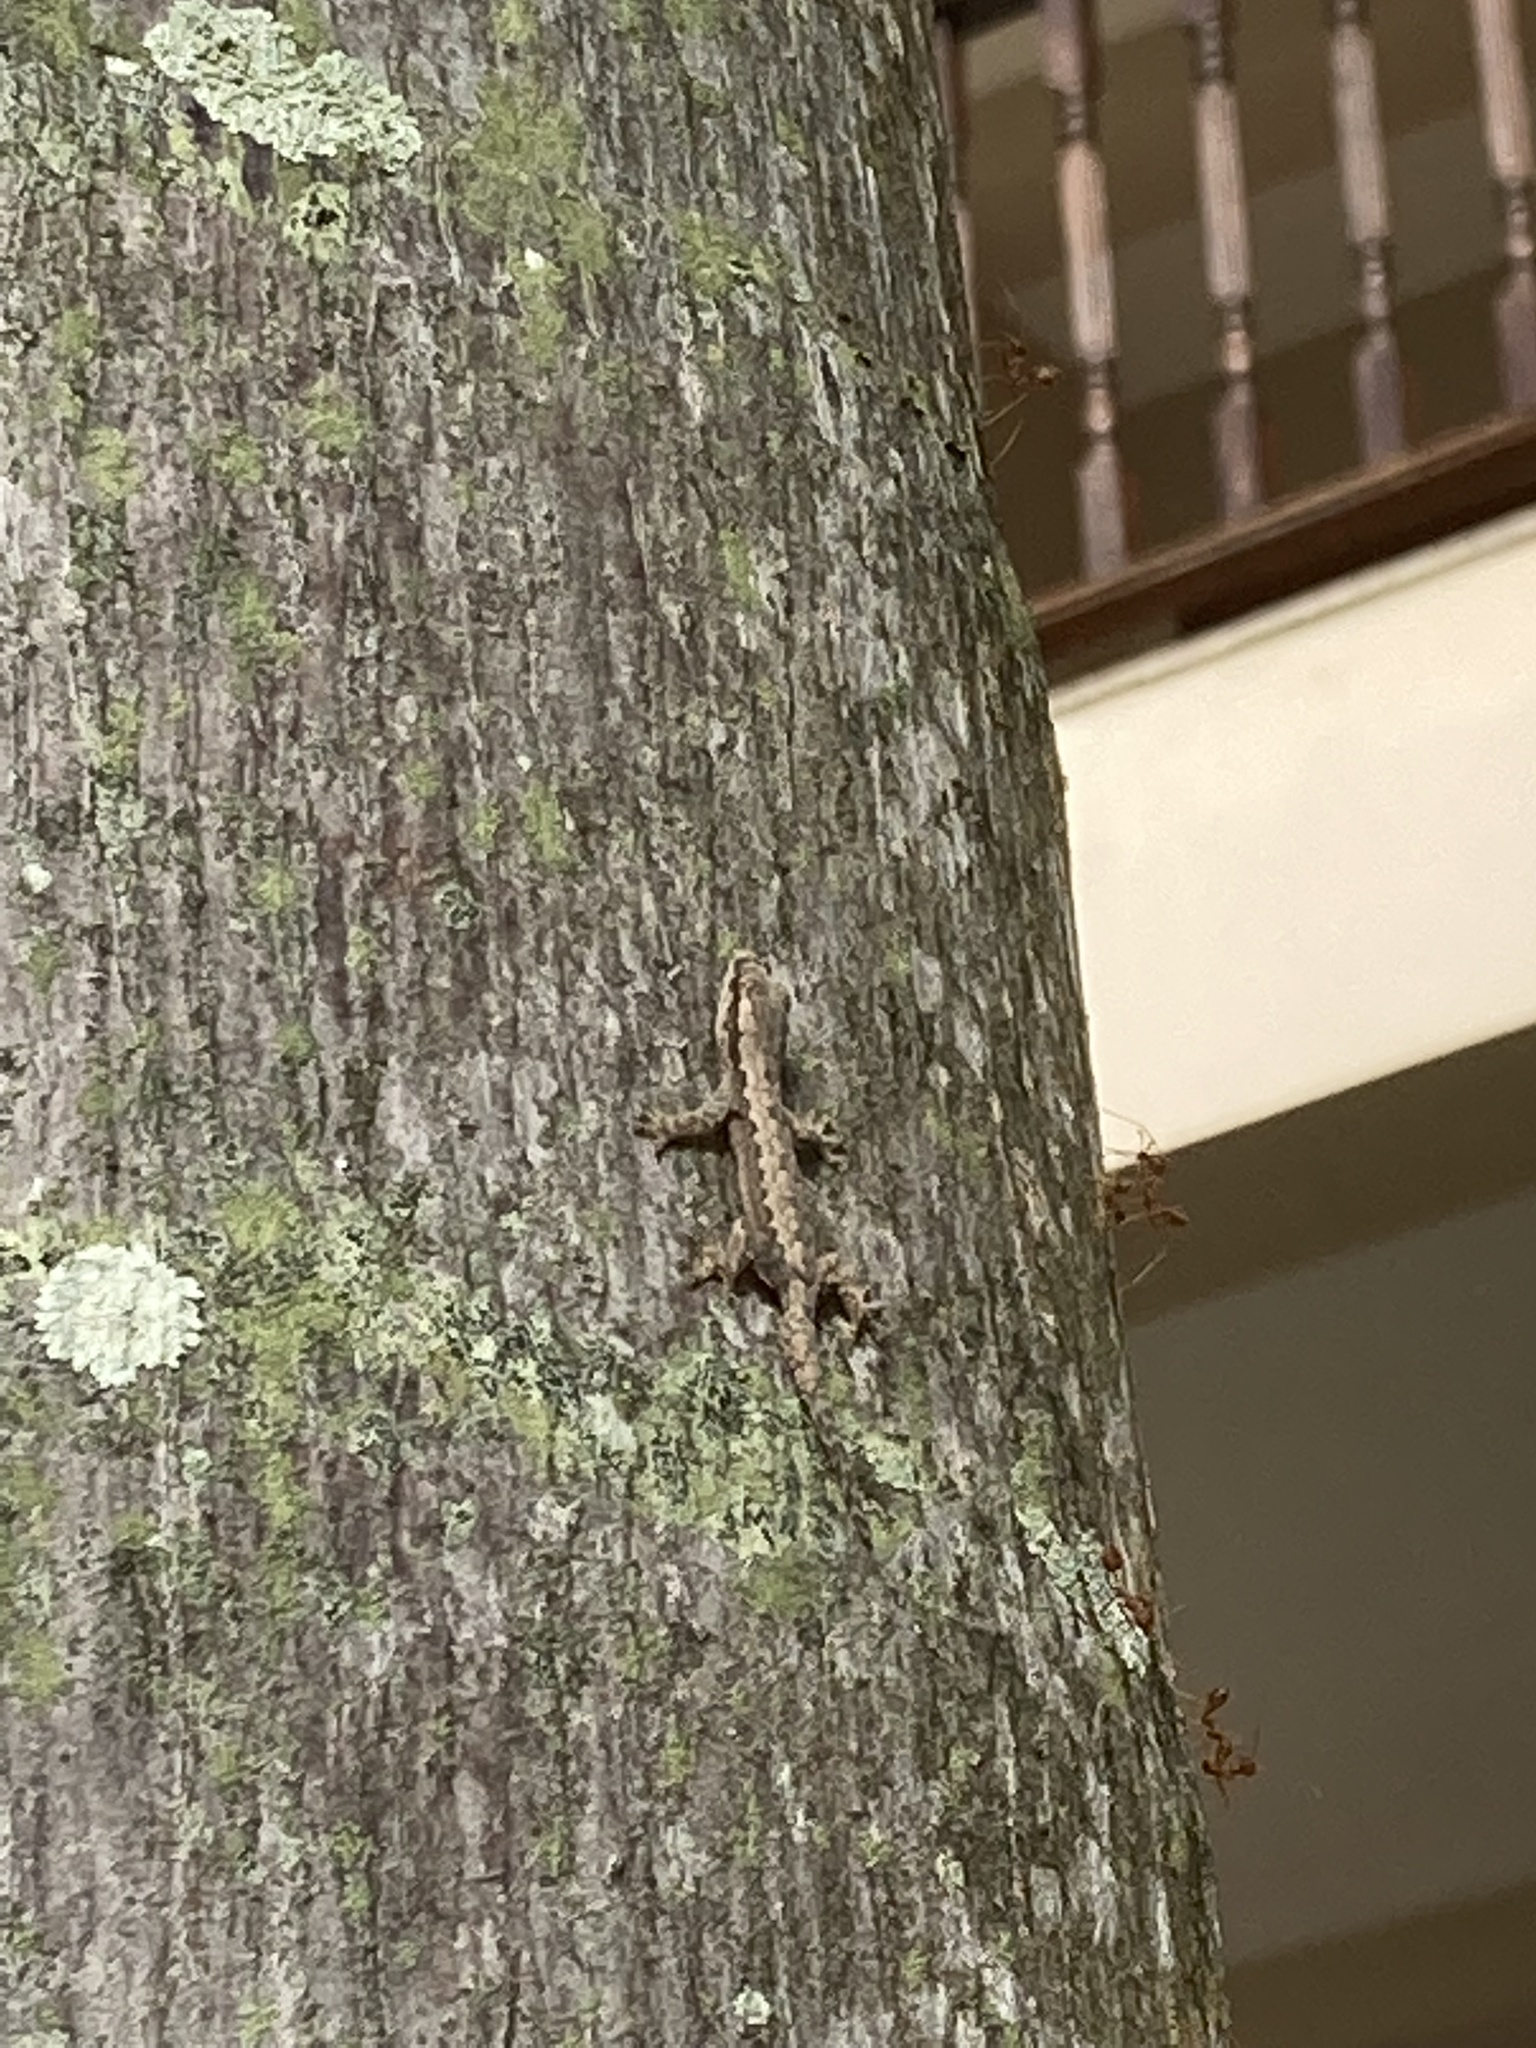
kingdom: Animalia
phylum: Chordata
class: Squamata
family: Gekkonidae
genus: Hemidactylus
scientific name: Hemidactylus platyurus
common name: Flat-tailed house gecko
